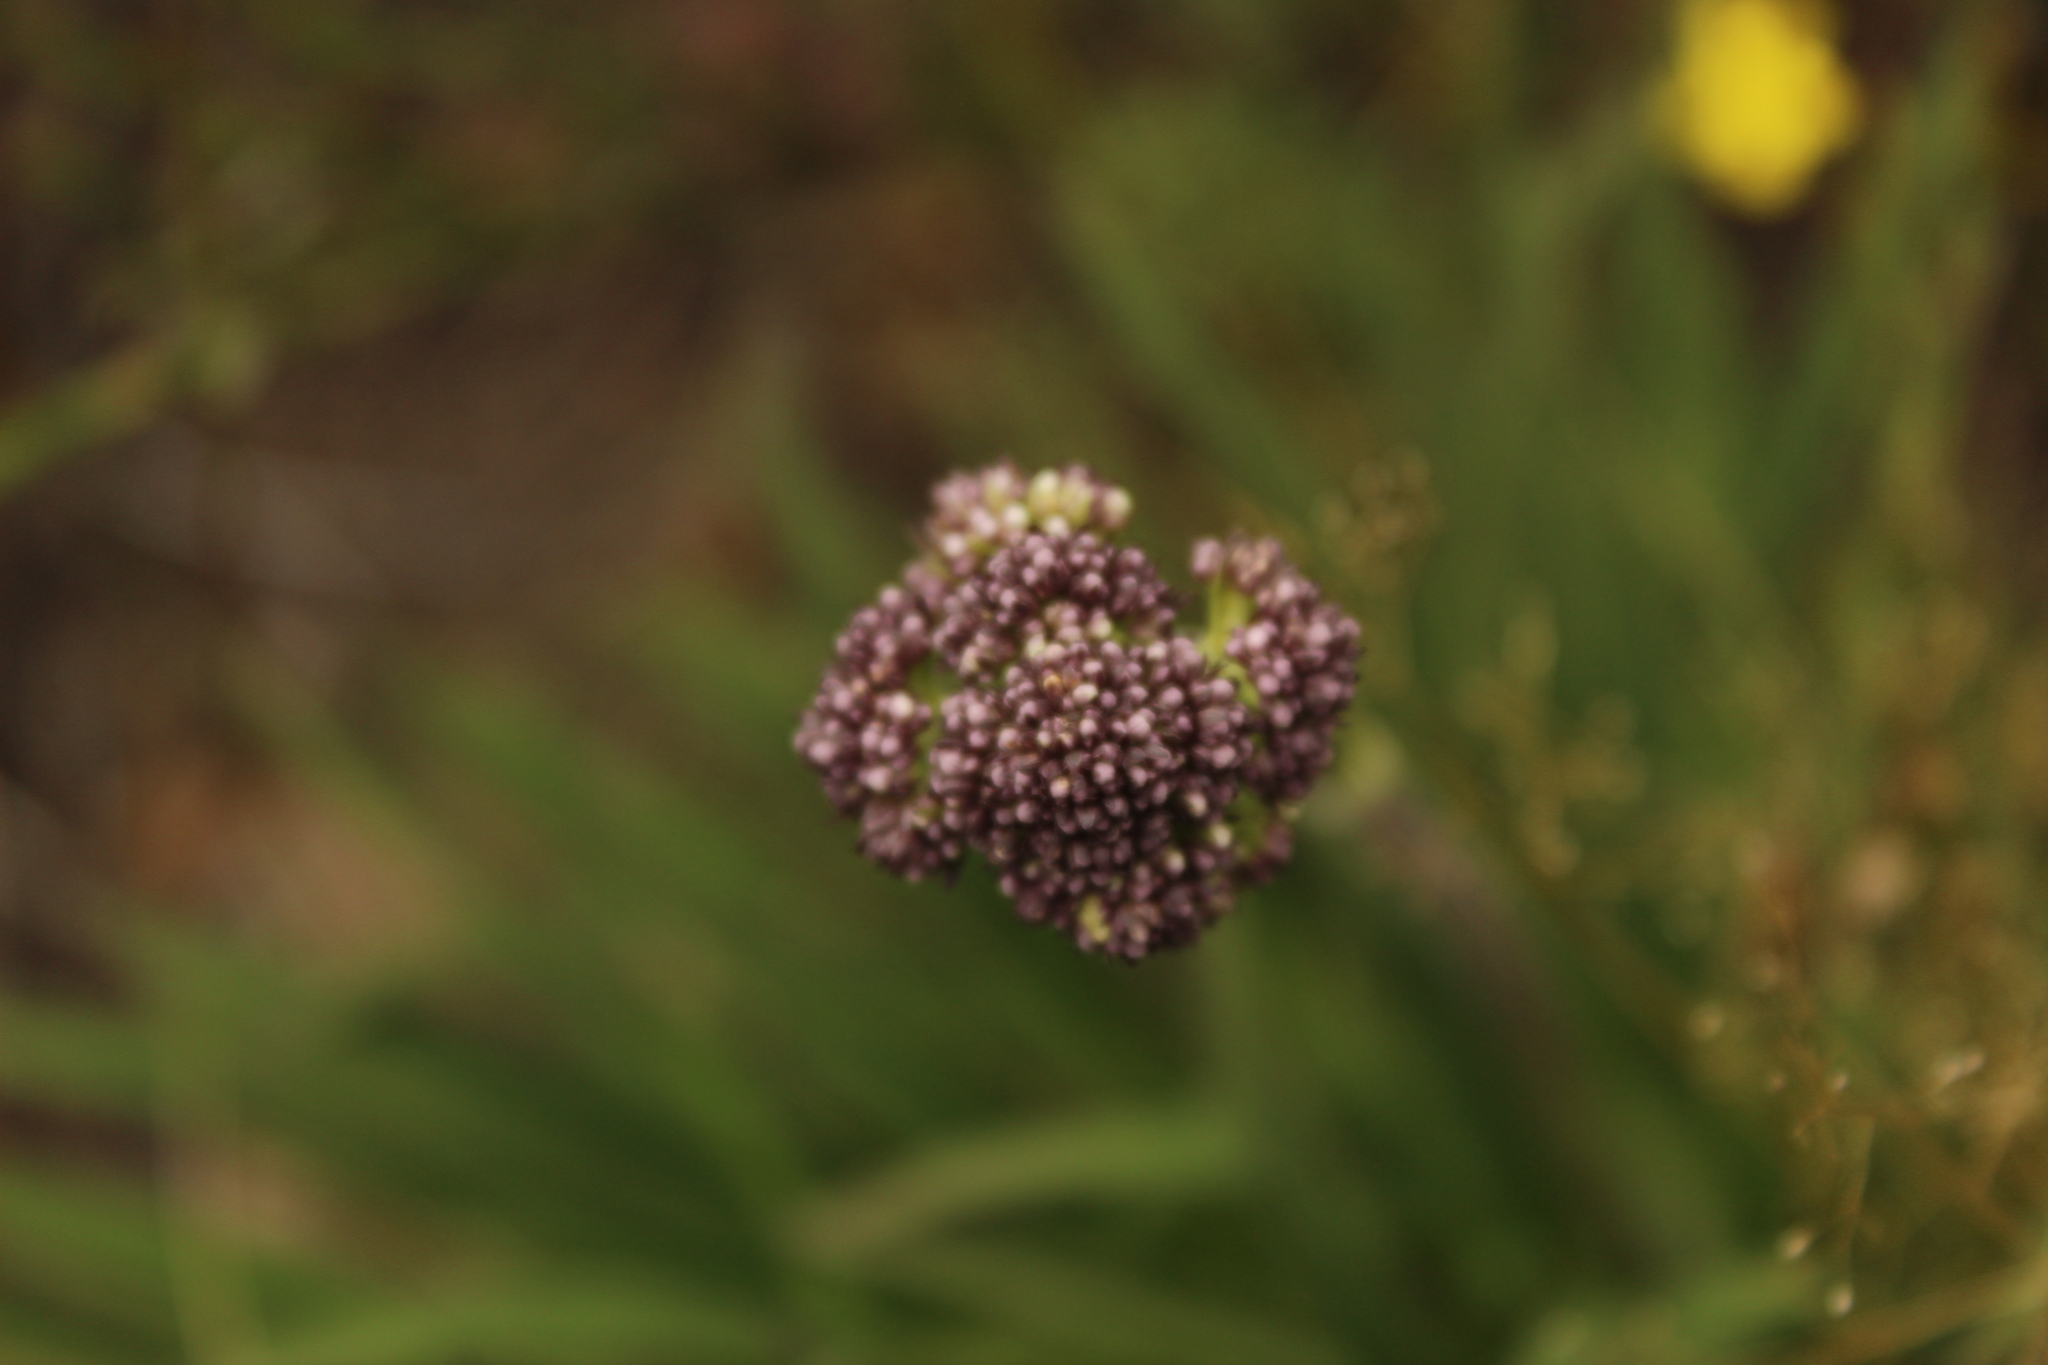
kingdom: Plantae
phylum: Tracheophyta
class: Magnoliopsida
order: Dipsacales
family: Caprifoliaceae
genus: Valeriana
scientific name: Valeriana pilosa
